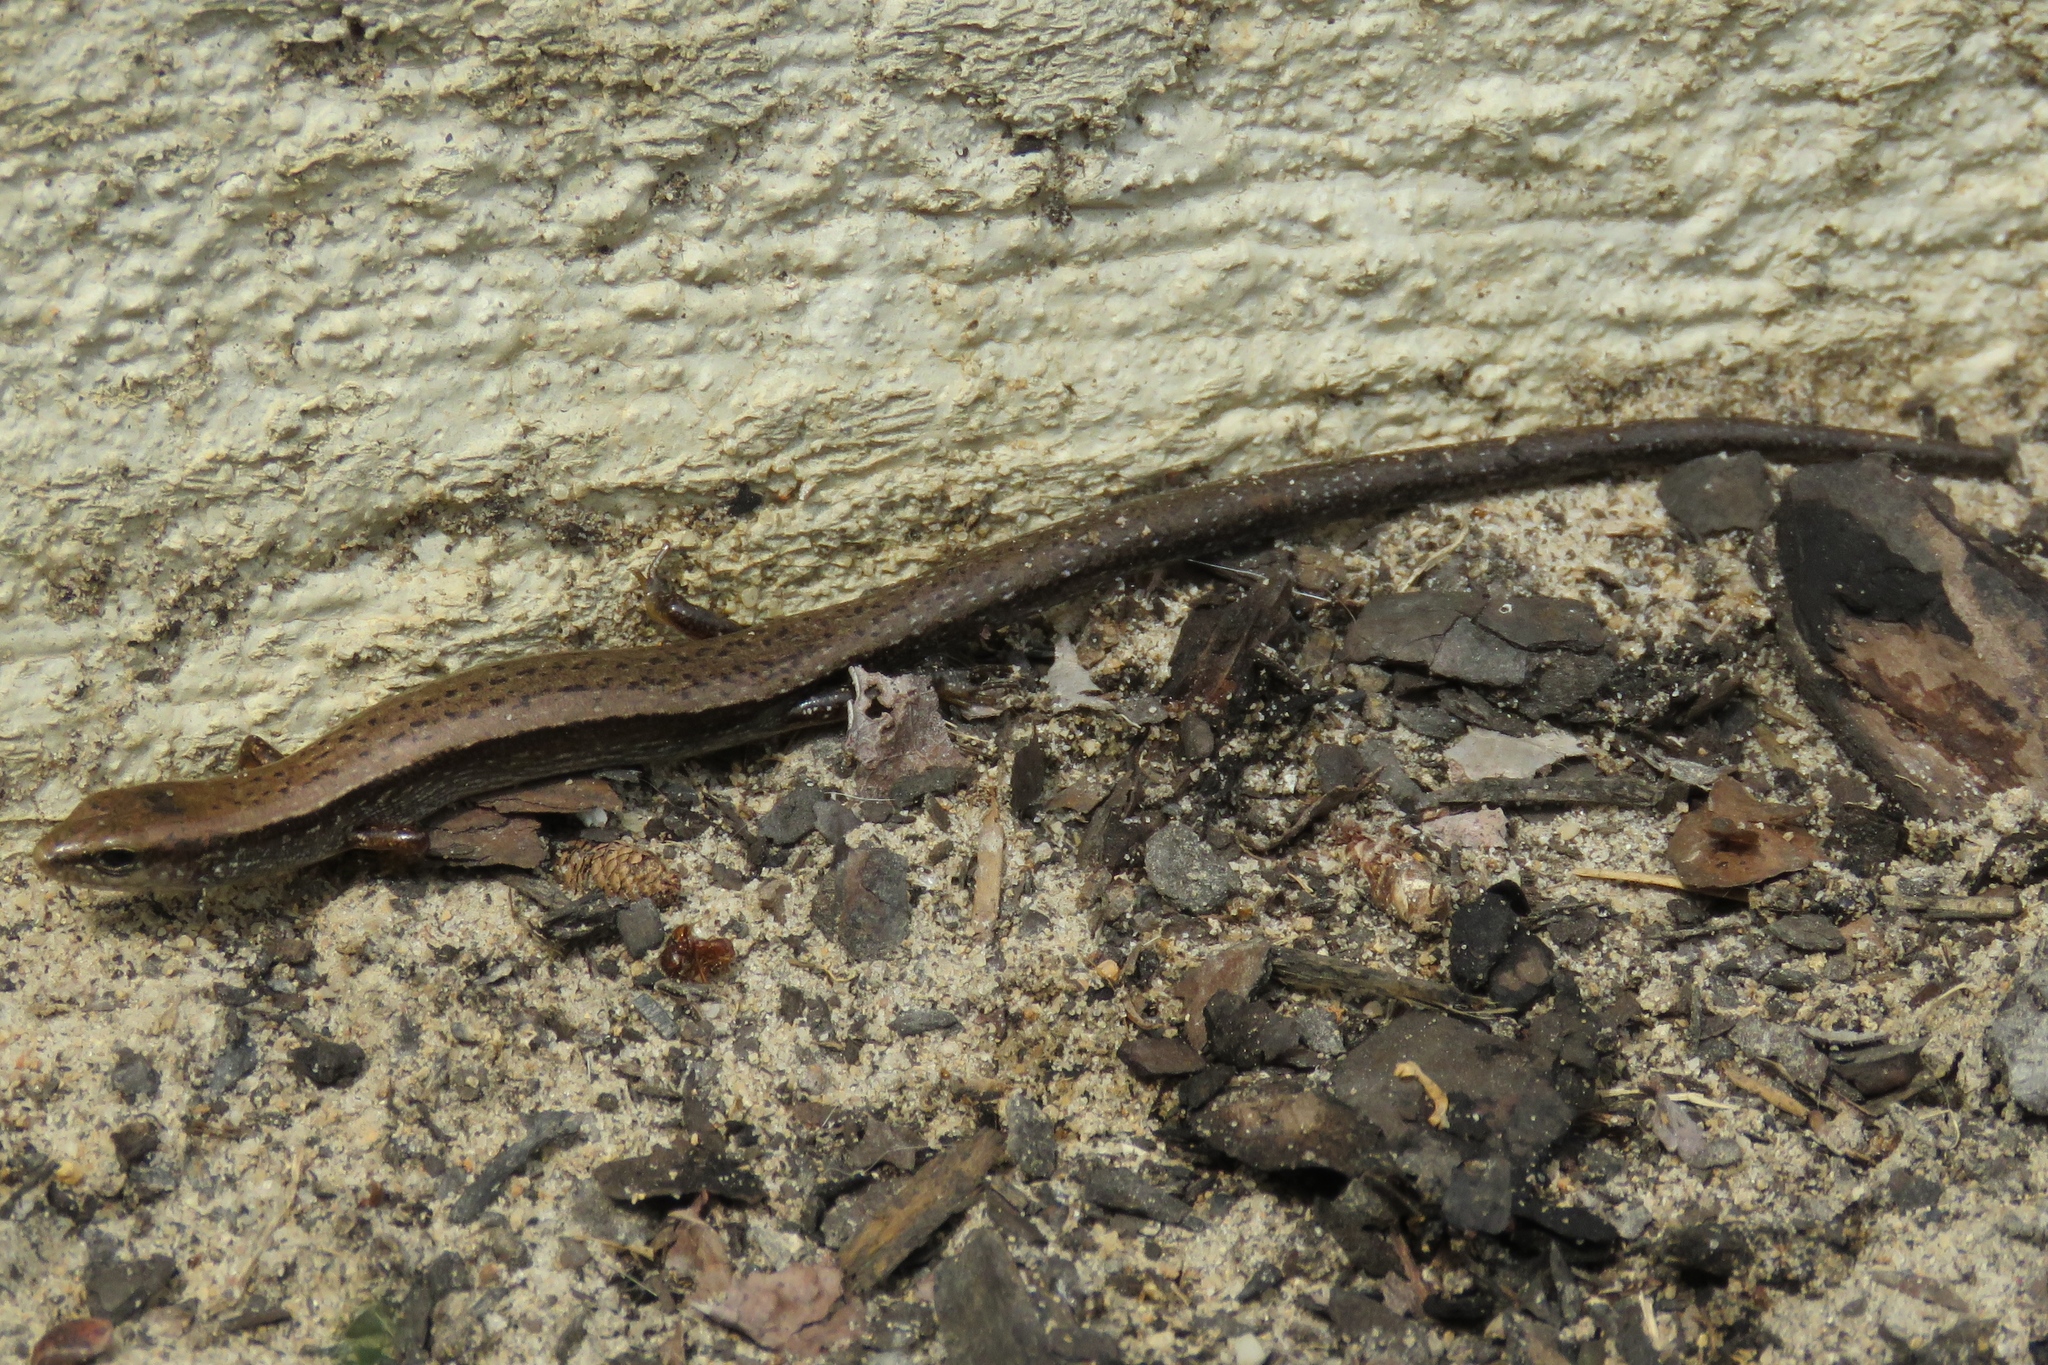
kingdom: Animalia
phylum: Chordata
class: Squamata
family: Scincidae
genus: Scincella
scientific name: Scincella lateralis
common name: Ground skink
